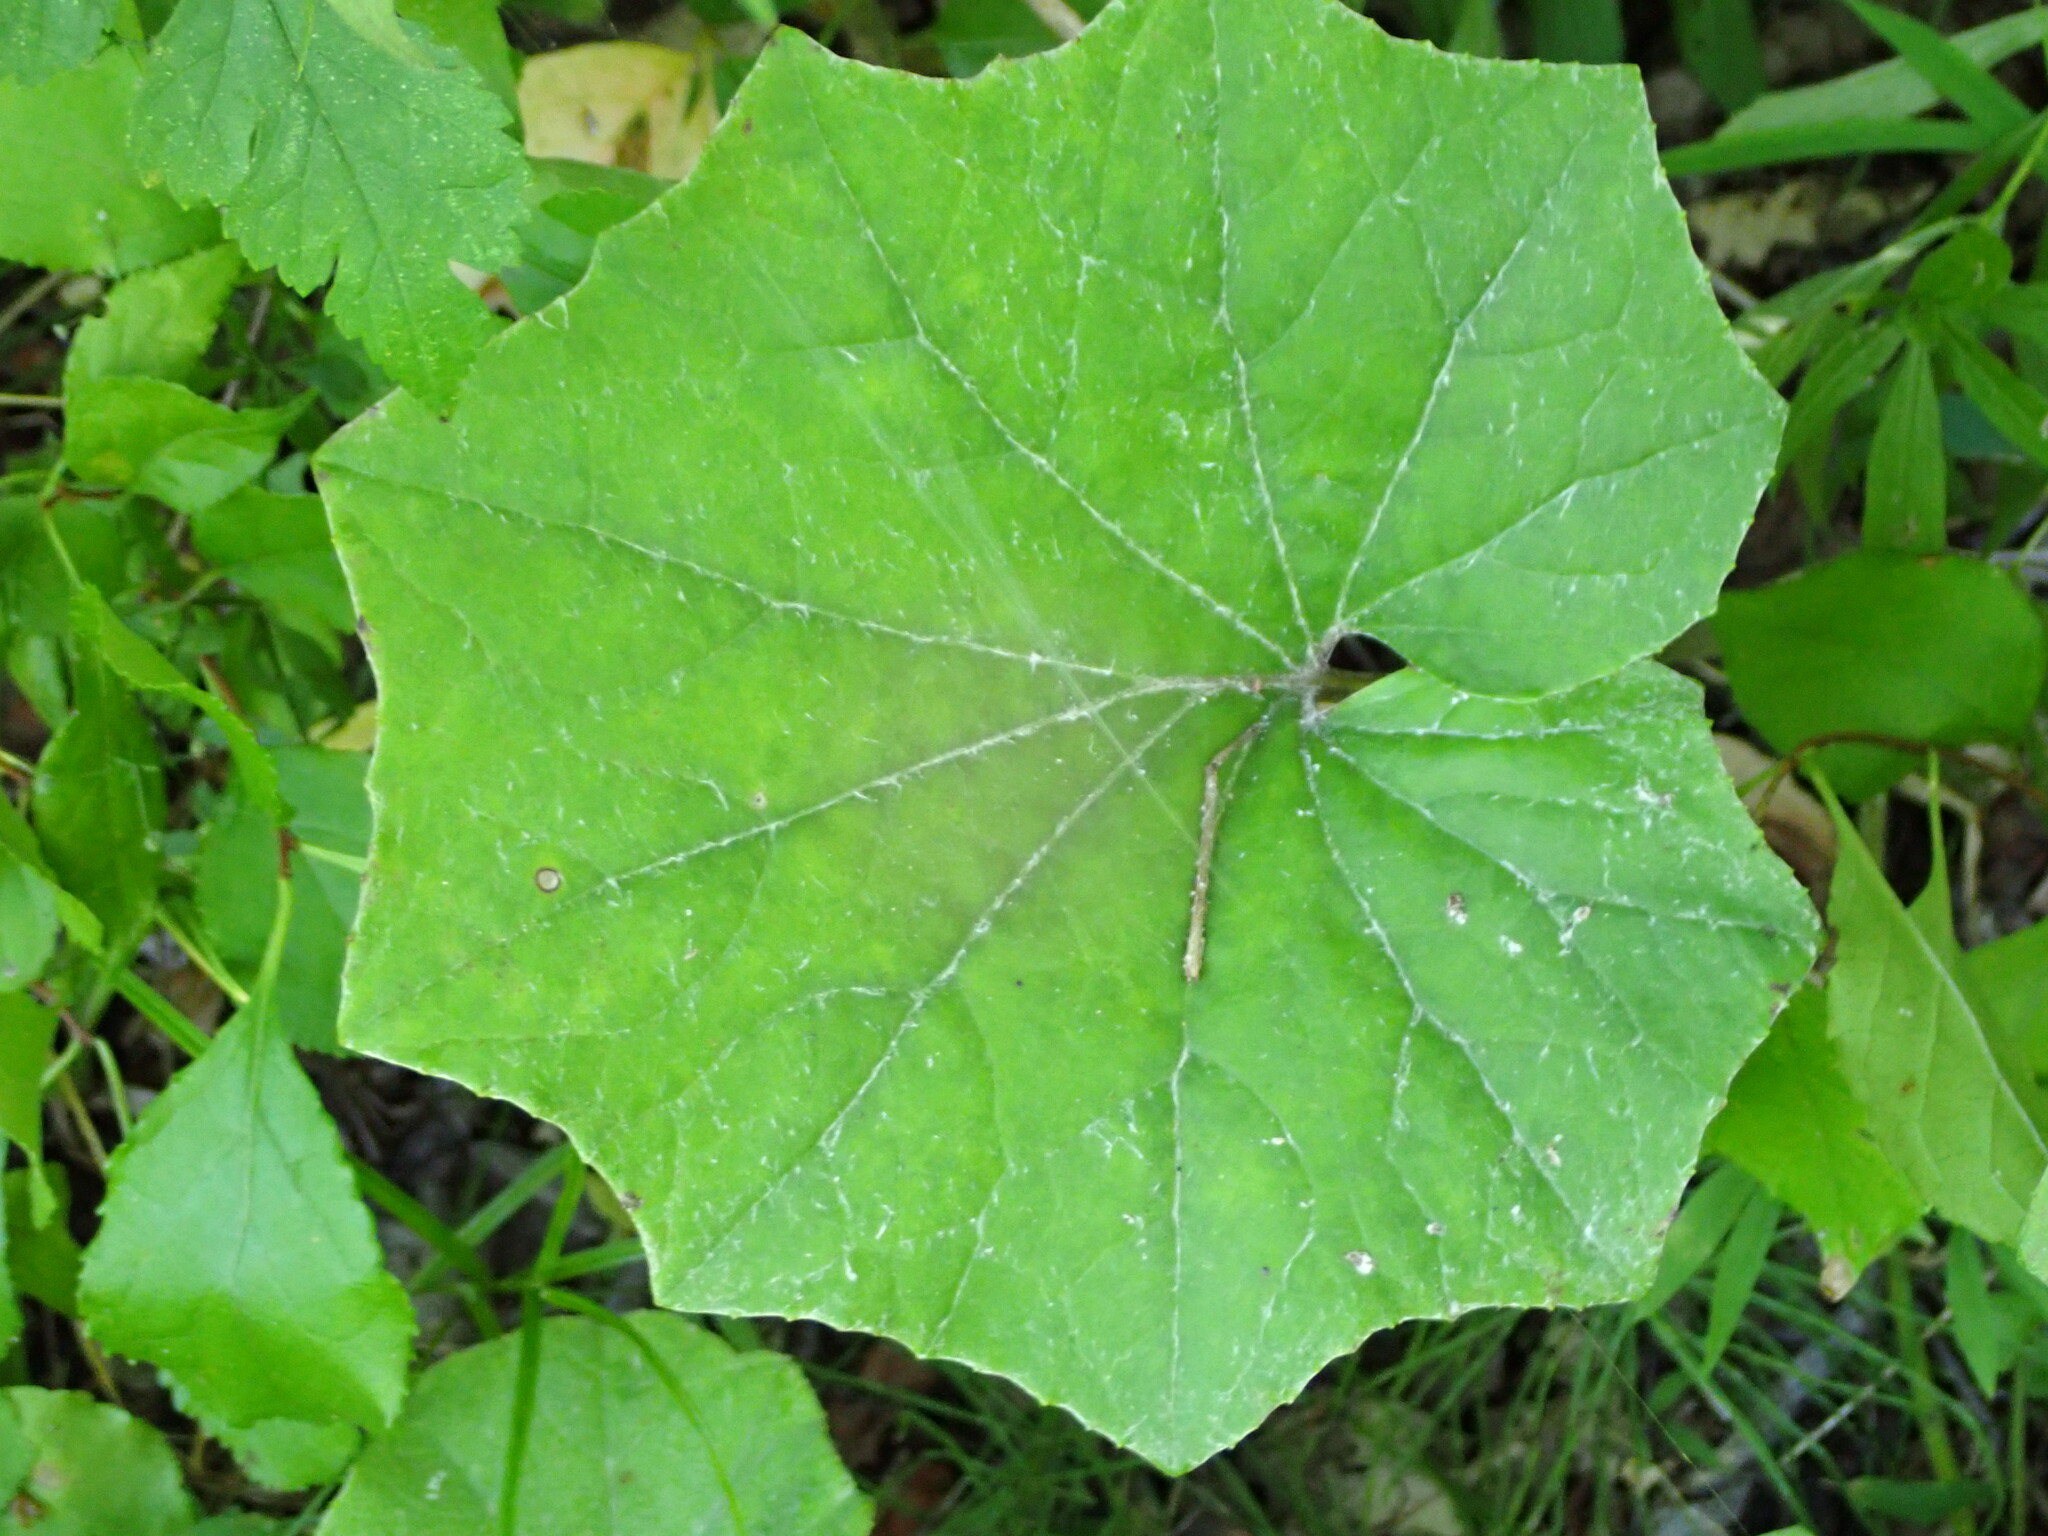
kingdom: Plantae
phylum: Tracheophyta
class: Magnoliopsida
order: Asterales
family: Asteraceae
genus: Tussilago
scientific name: Tussilago farfara
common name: Coltsfoot
